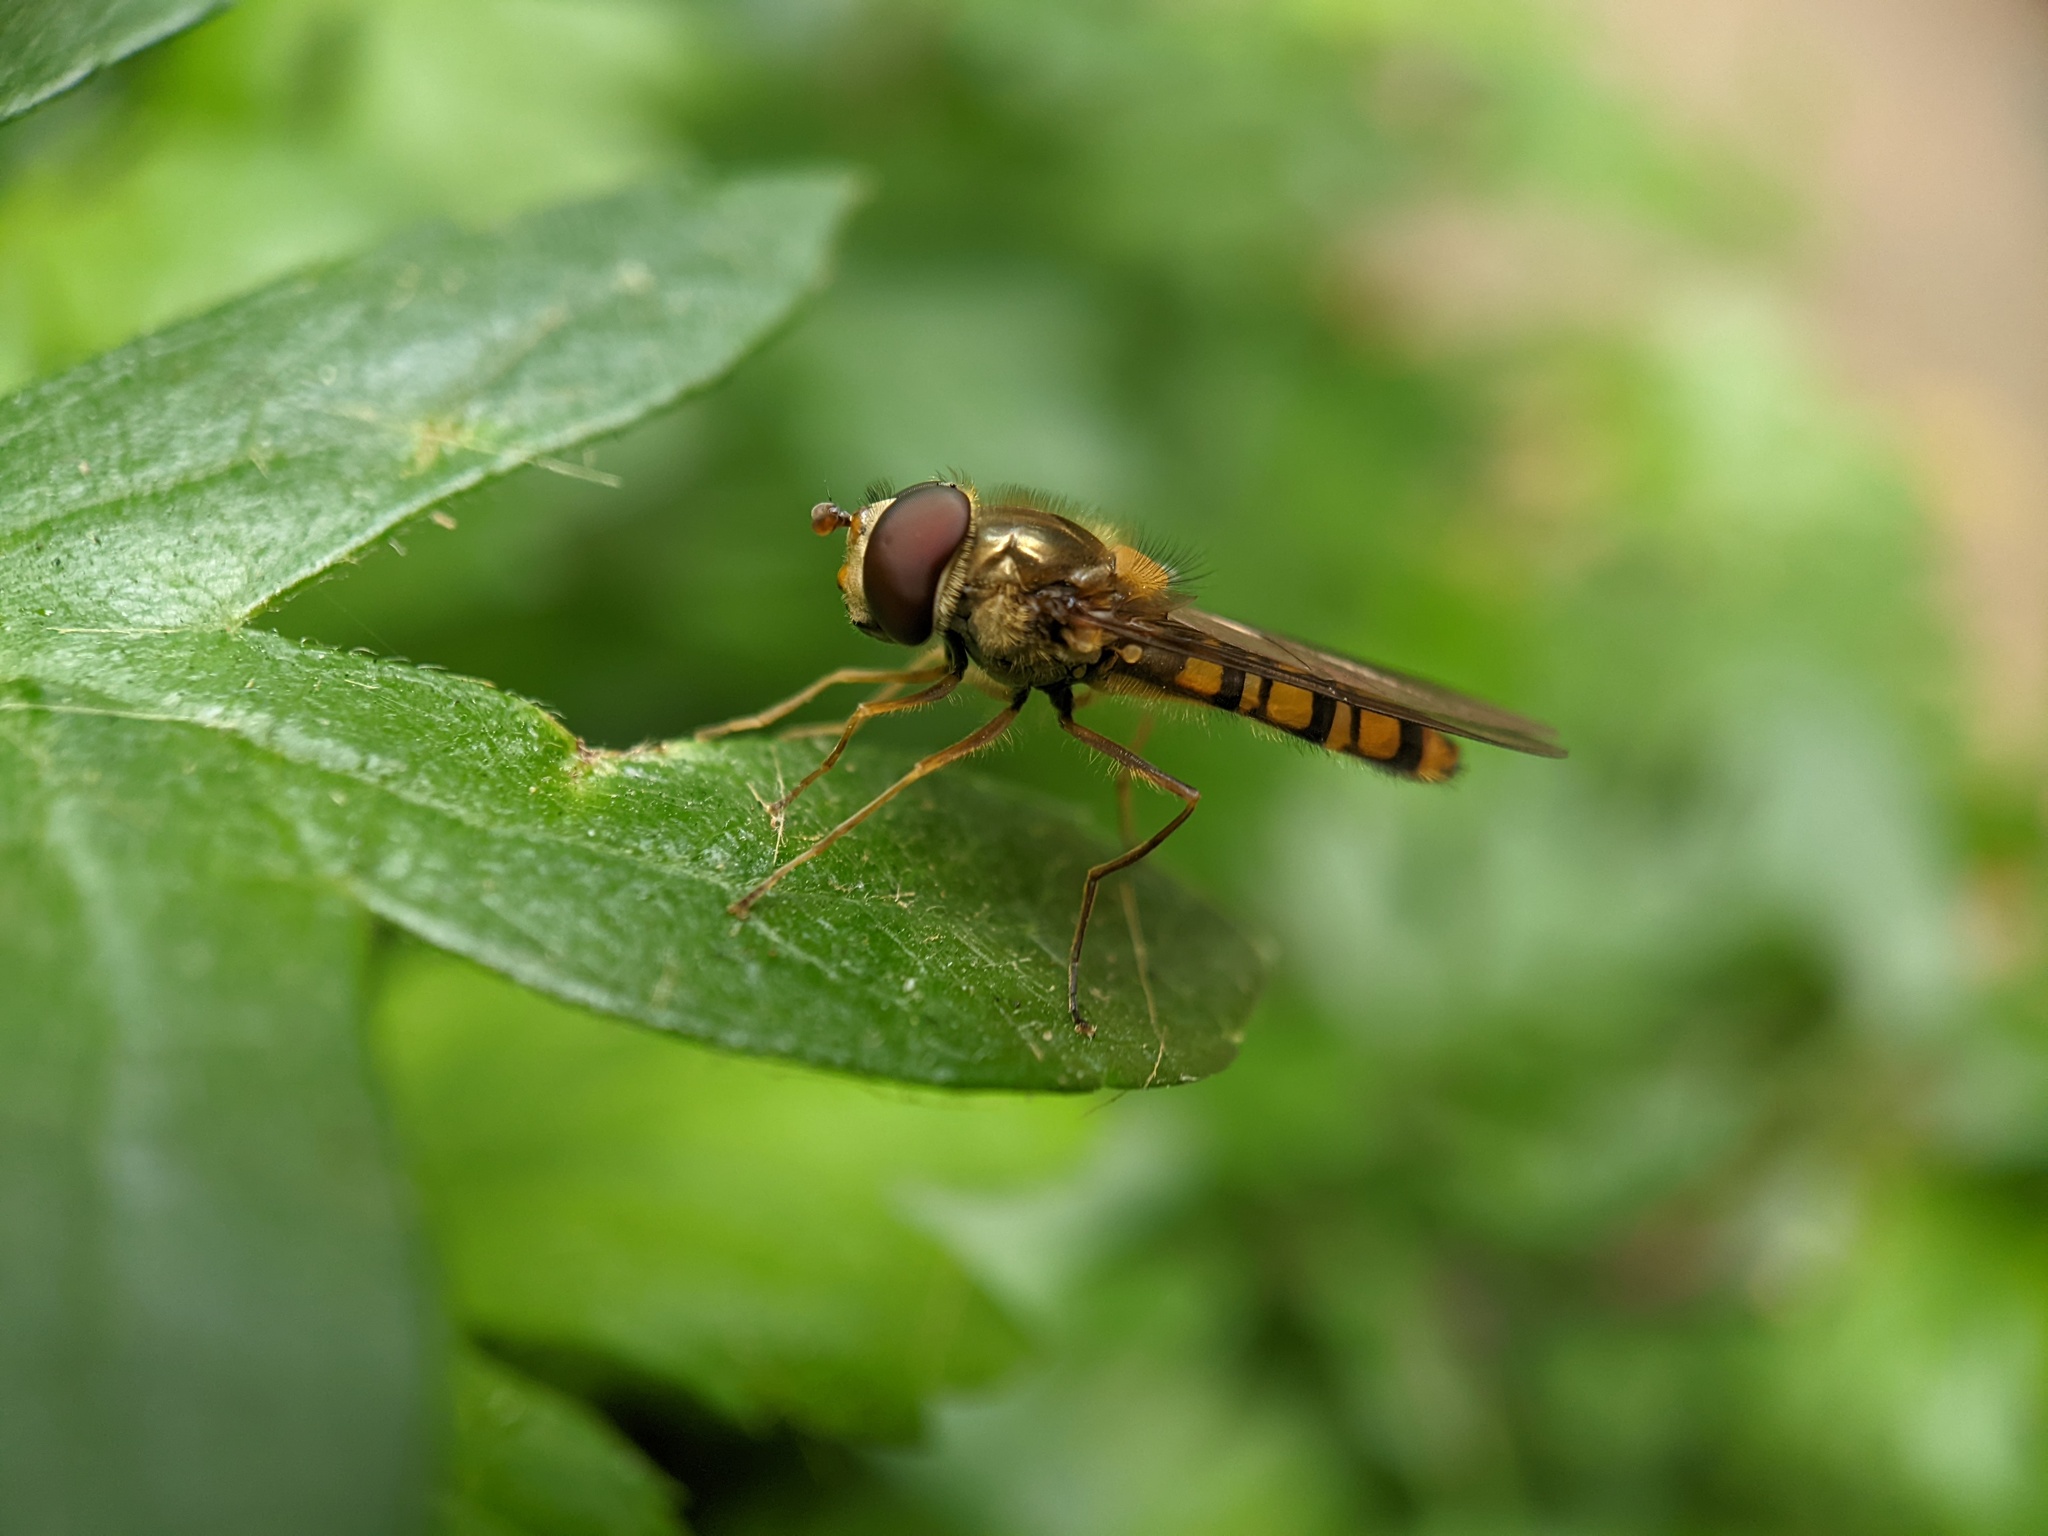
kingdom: Animalia
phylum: Arthropoda
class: Insecta
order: Diptera
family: Syrphidae
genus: Episyrphus
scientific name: Episyrphus balteatus
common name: Marmalade hoverfly
